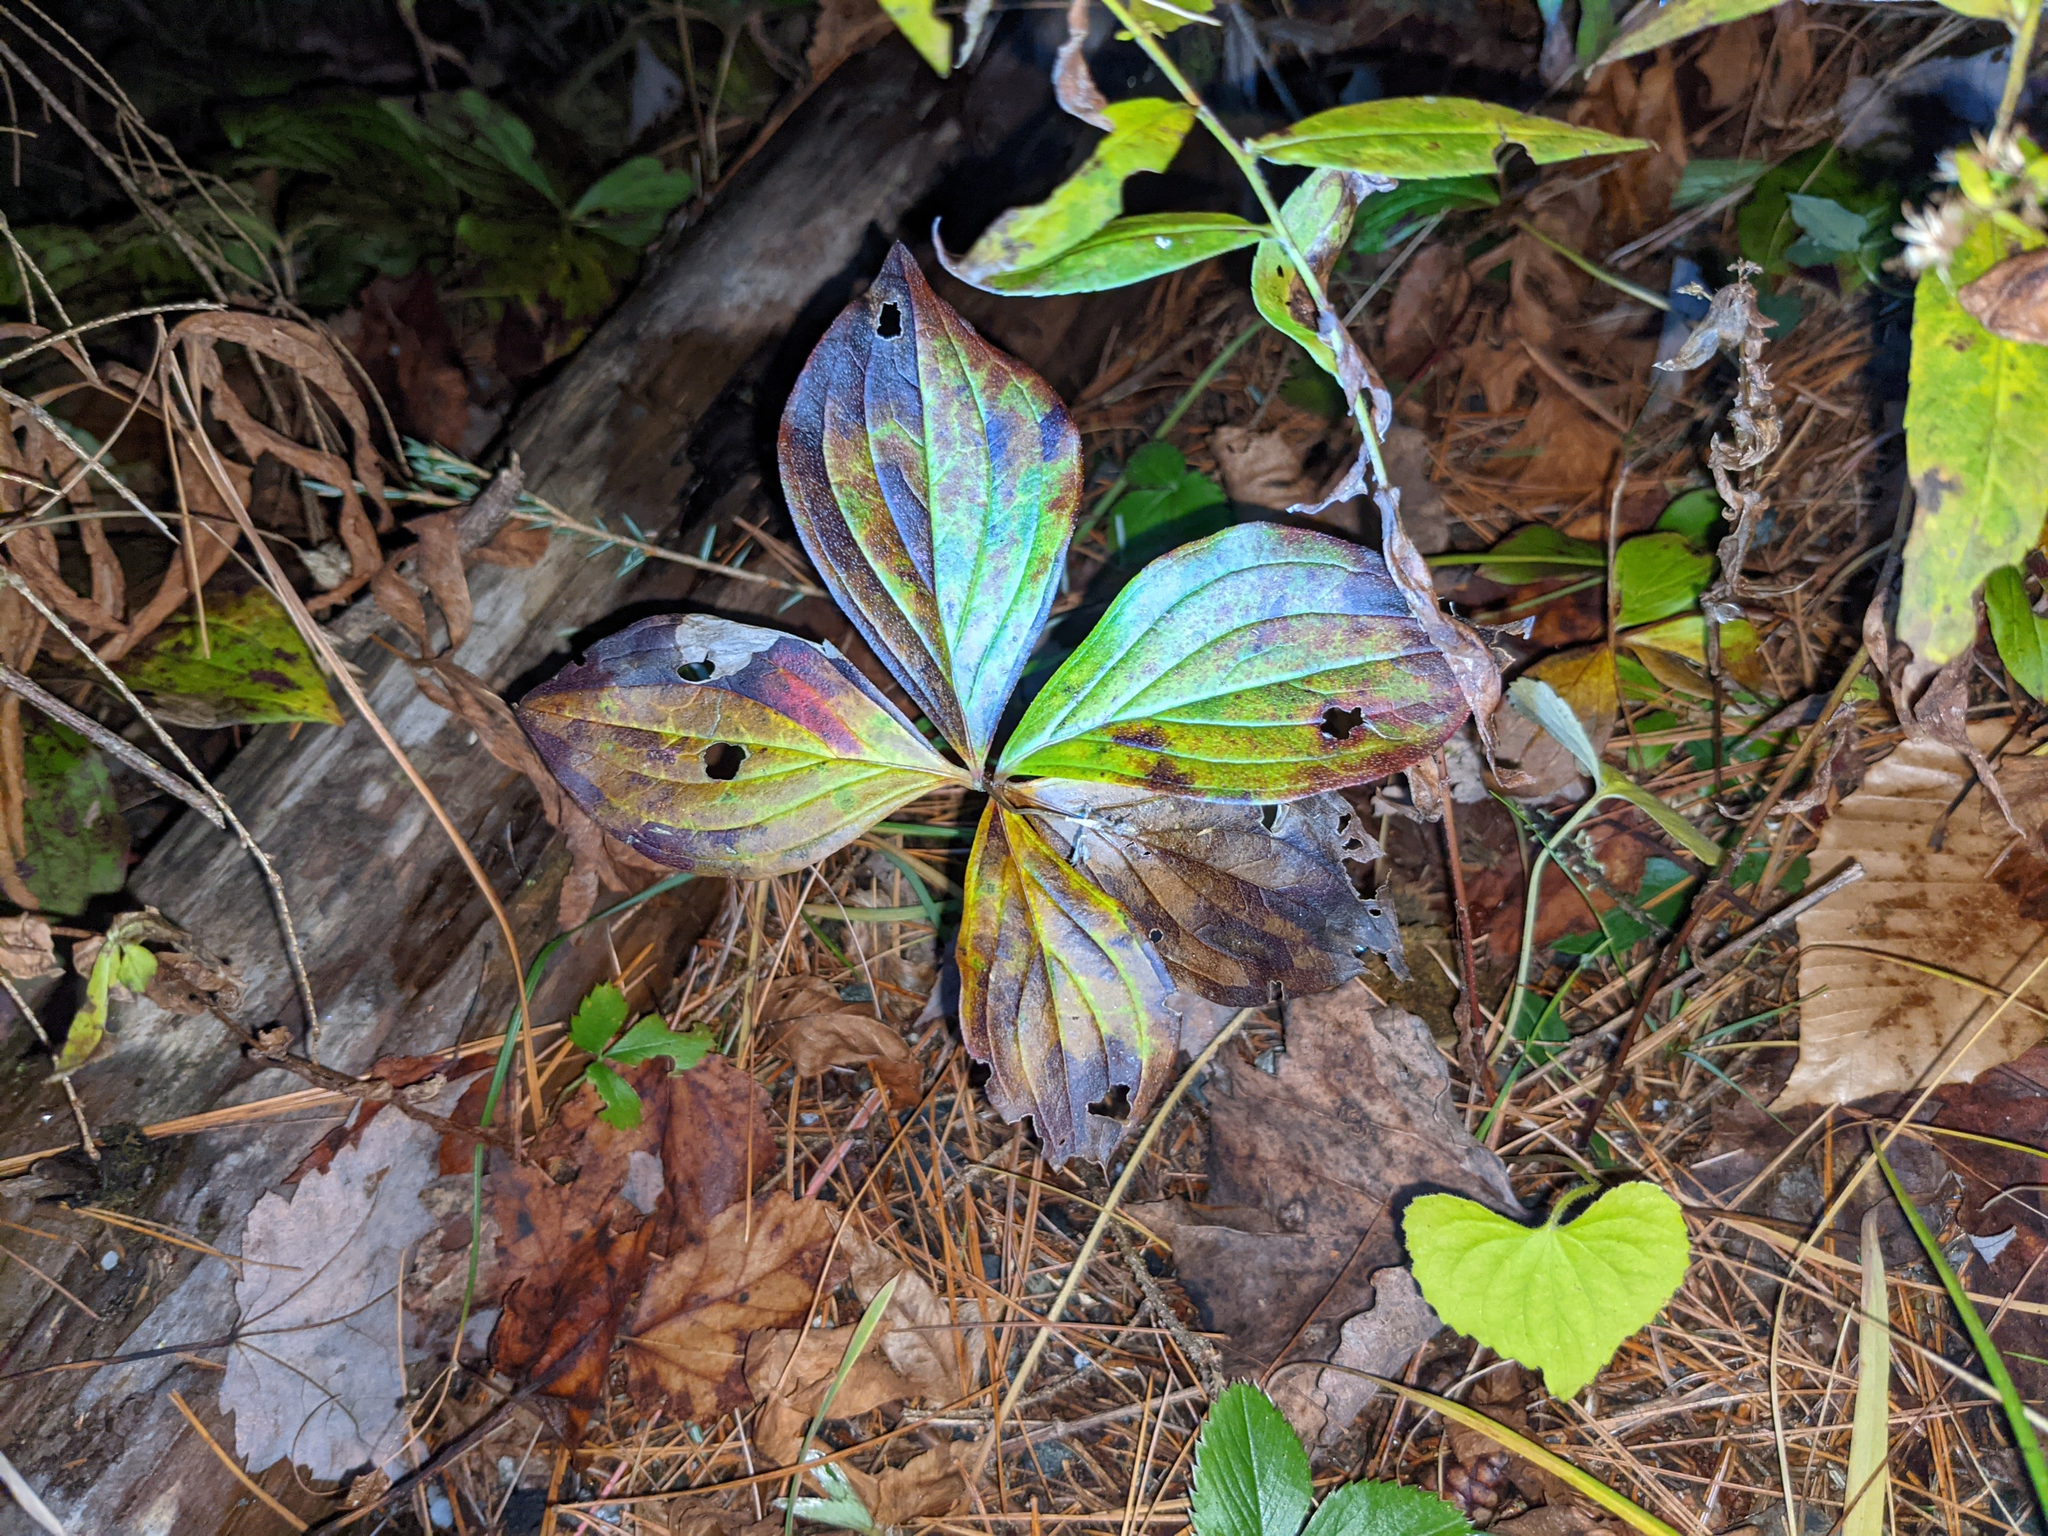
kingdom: Plantae
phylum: Tracheophyta
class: Magnoliopsida
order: Cornales
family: Cornaceae
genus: Cornus
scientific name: Cornus canadensis
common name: Creeping dogwood
